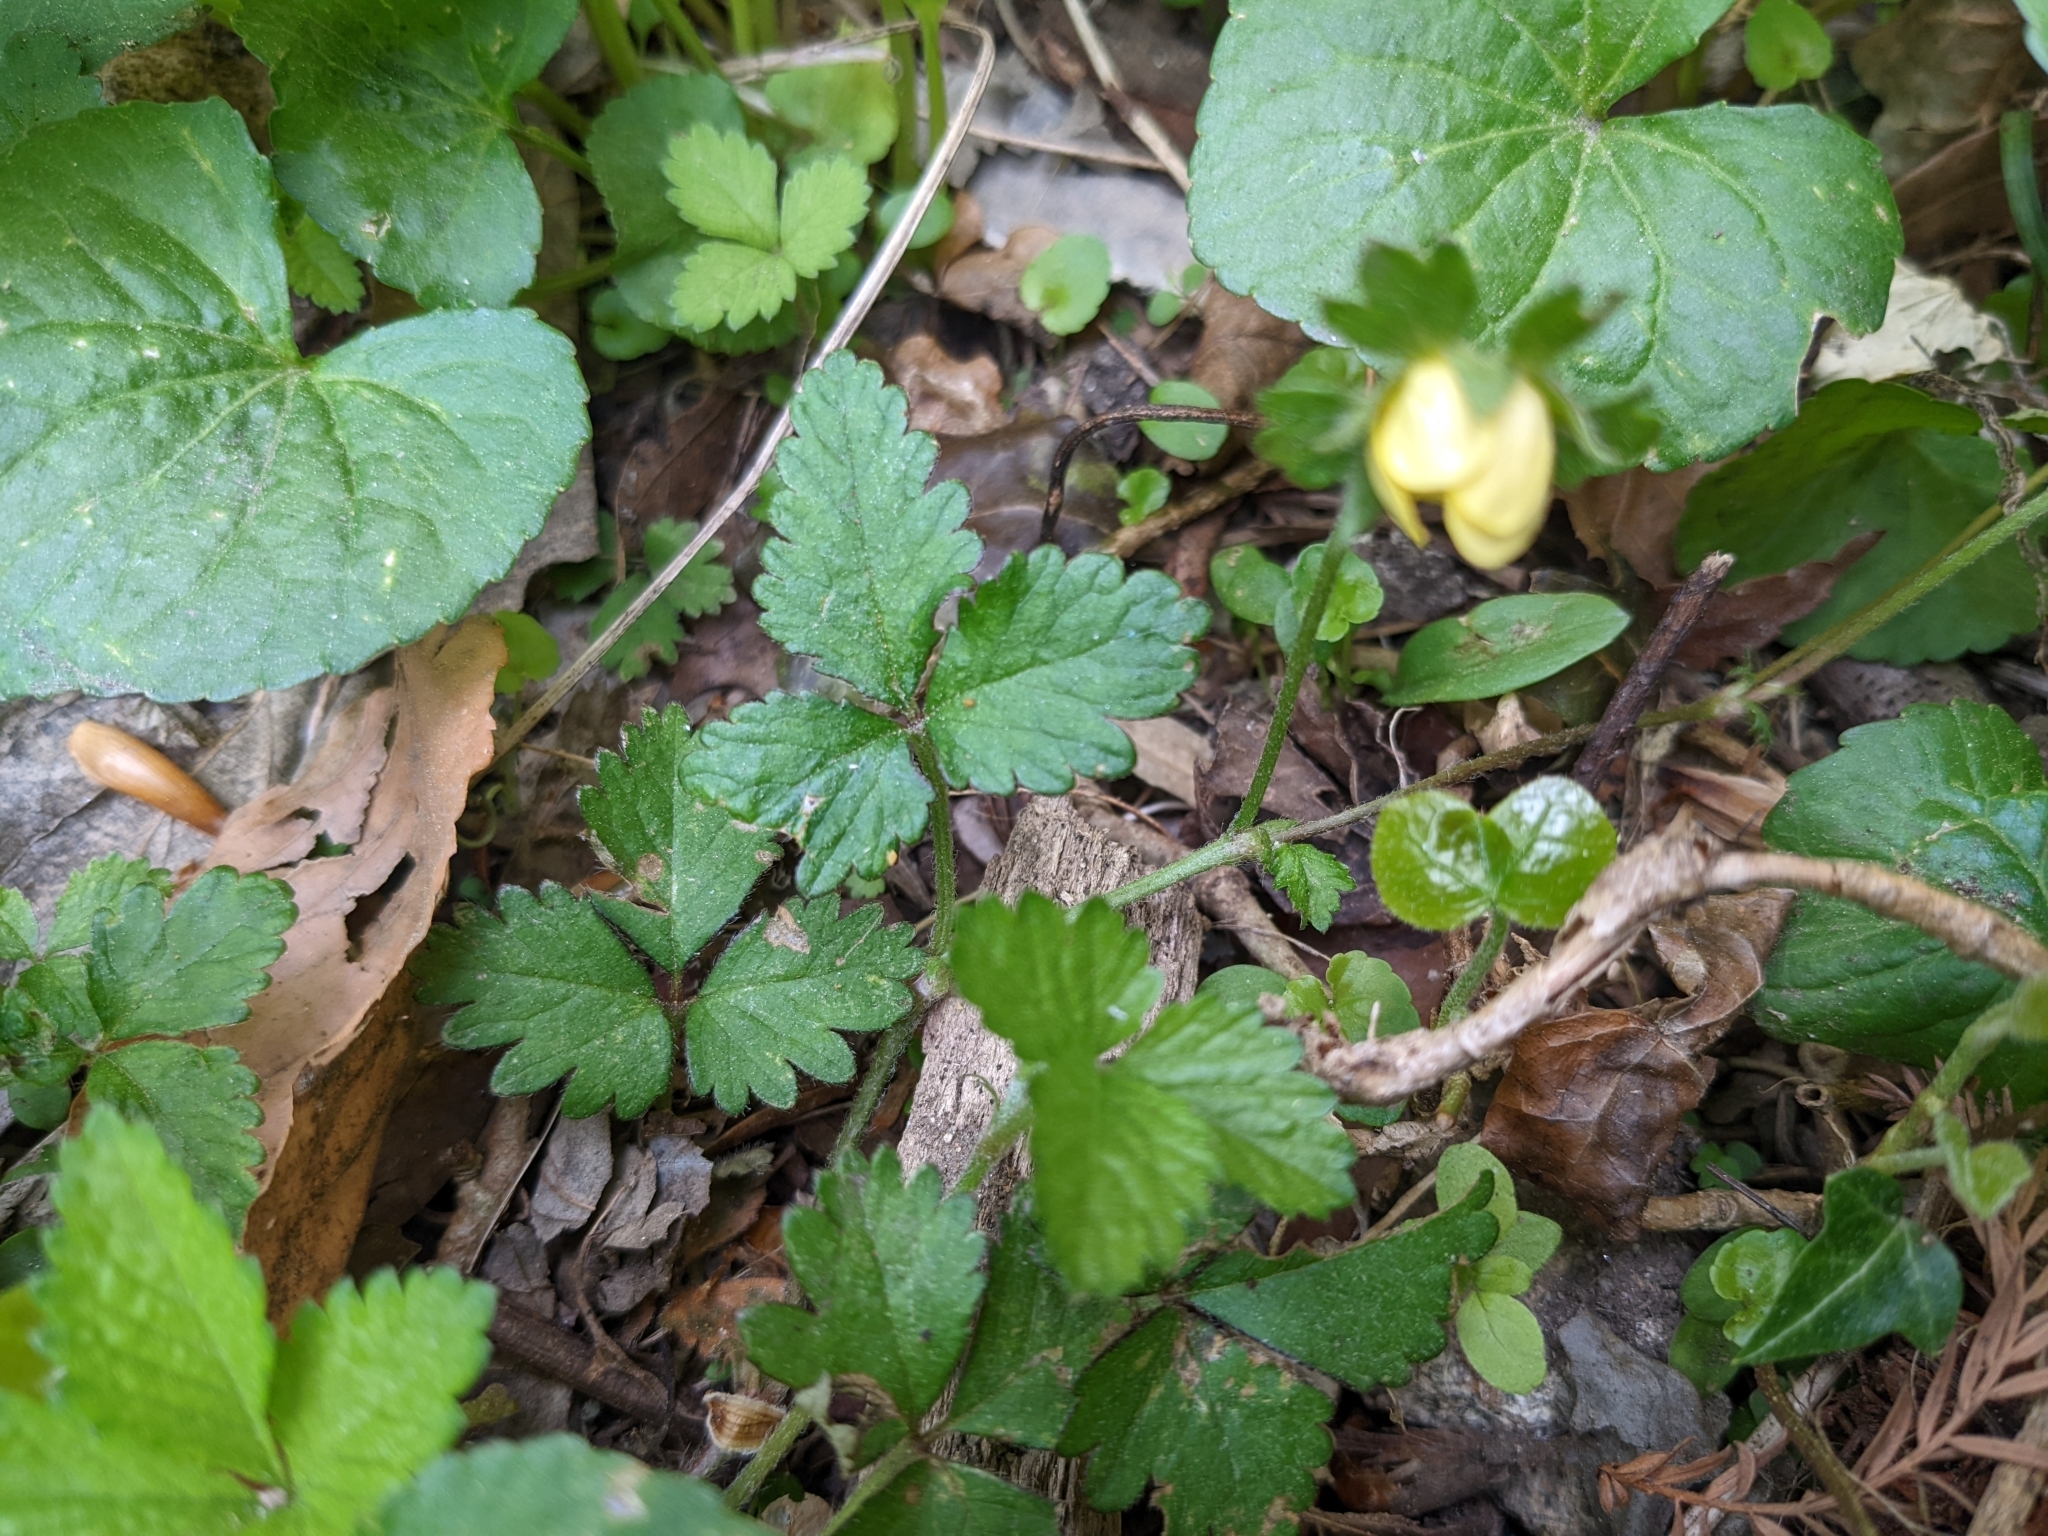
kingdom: Plantae
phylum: Tracheophyta
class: Magnoliopsida
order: Rosales
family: Rosaceae
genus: Potentilla
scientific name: Potentilla indica
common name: Yellow-flowered strawberry
